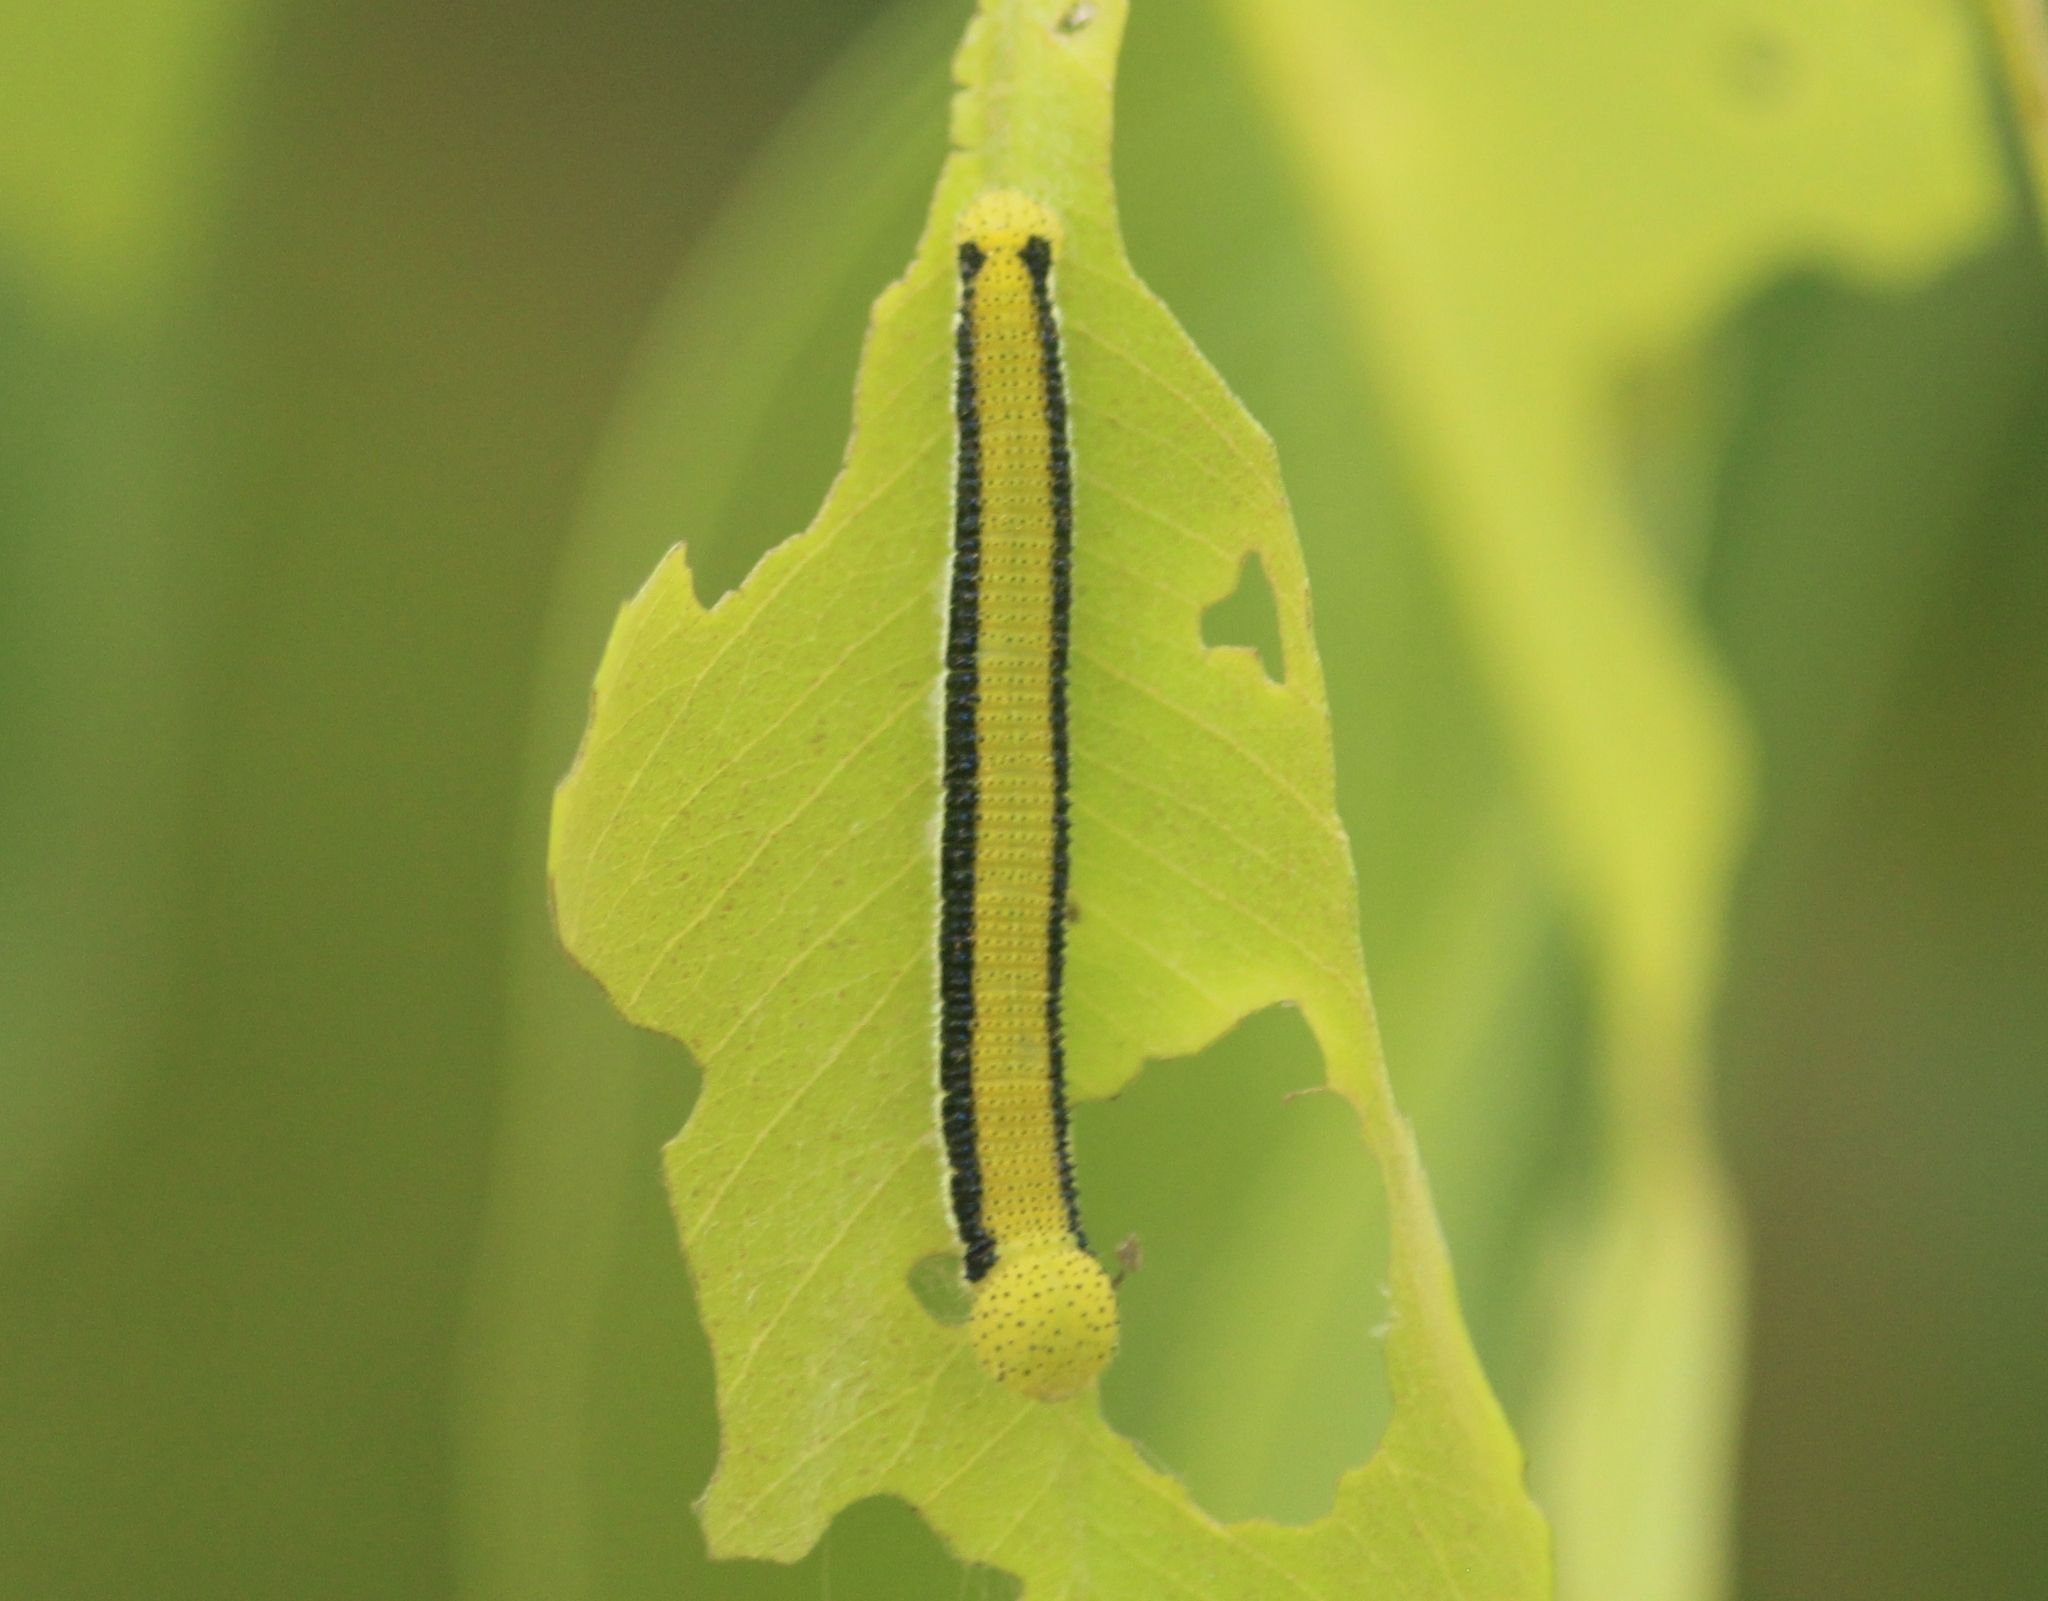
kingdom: Animalia
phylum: Arthropoda
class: Insecta
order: Lepidoptera
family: Pieridae
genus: Catopsilia
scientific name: Catopsilia pomona
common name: Common emigrant
